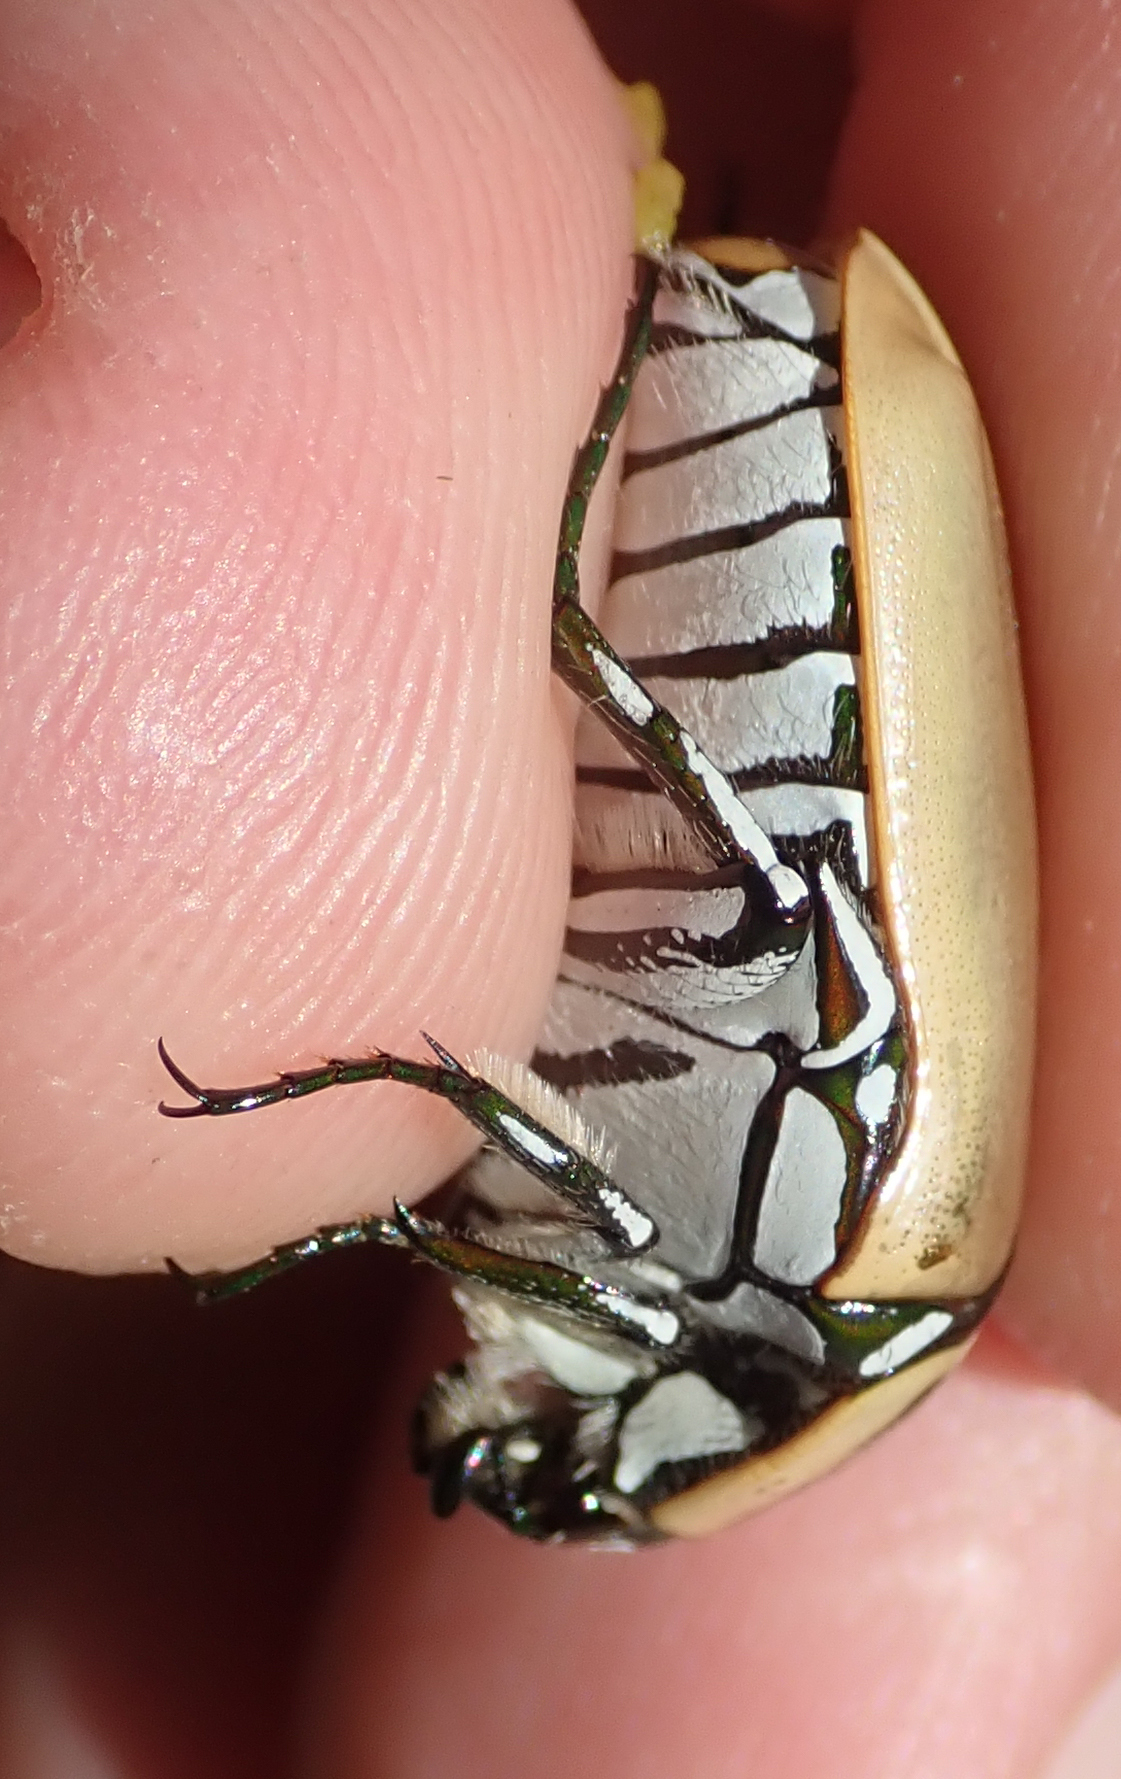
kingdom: Animalia
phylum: Arthropoda
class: Insecta
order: Coleoptera
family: Scarabaeidae
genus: Dischista
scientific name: Dischista cincta
